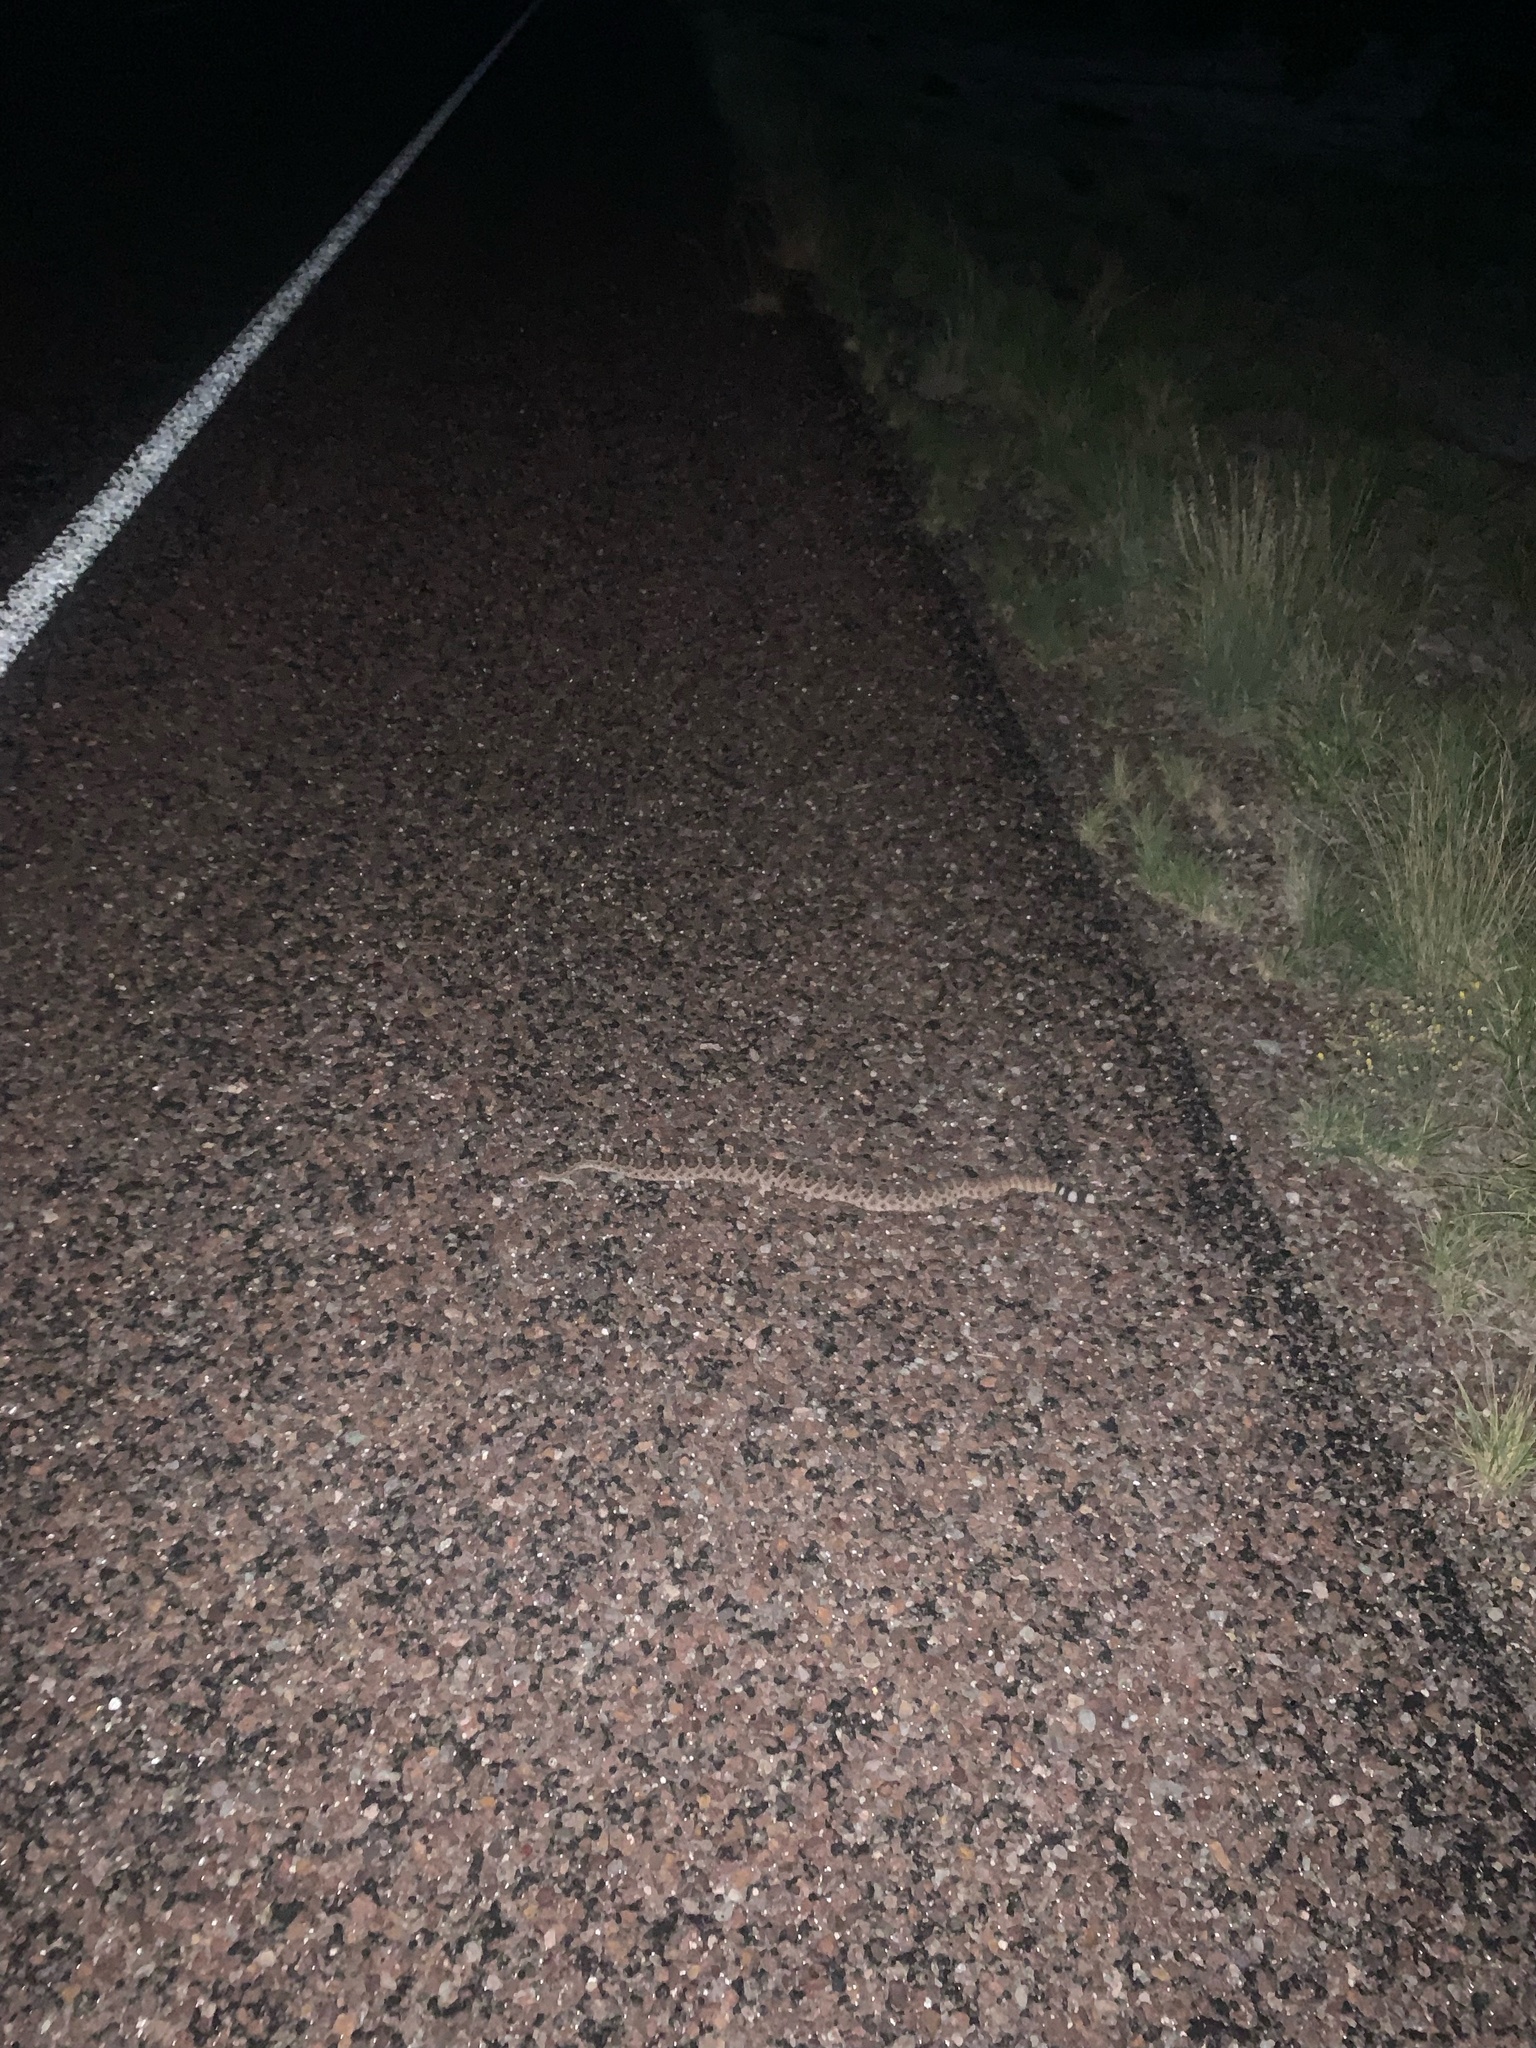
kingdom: Animalia
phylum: Chordata
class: Squamata
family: Viperidae
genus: Crotalus
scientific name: Crotalus atrox
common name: Western diamond-backed rattlesnake
